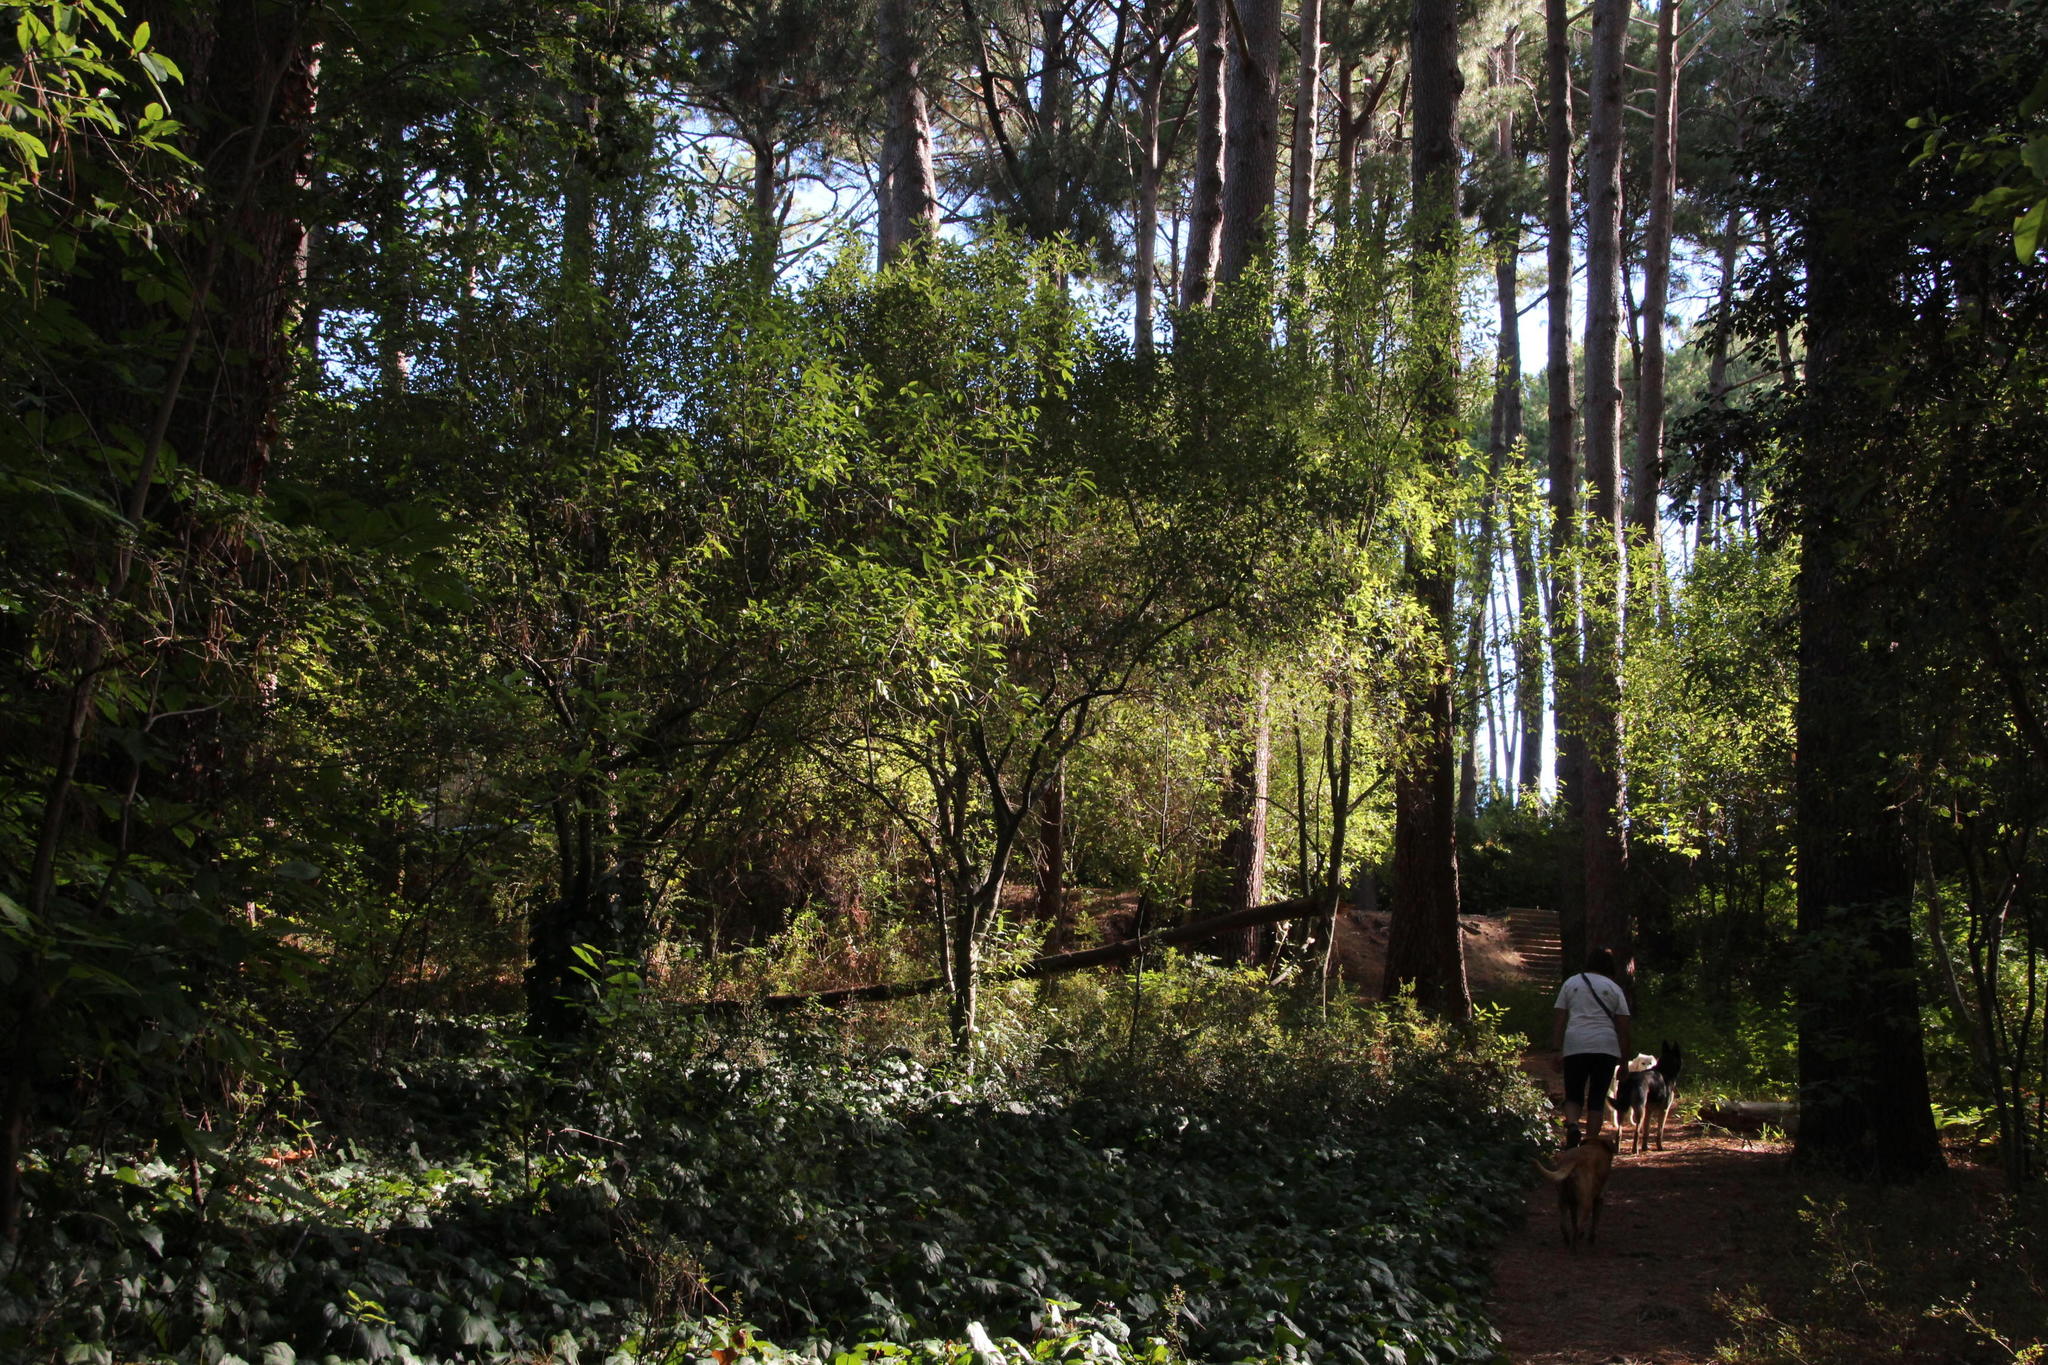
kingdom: Plantae
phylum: Tracheophyta
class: Magnoliopsida
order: Malpighiales
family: Achariaceae
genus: Kiggelaria
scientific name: Kiggelaria africana
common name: Wild peach
